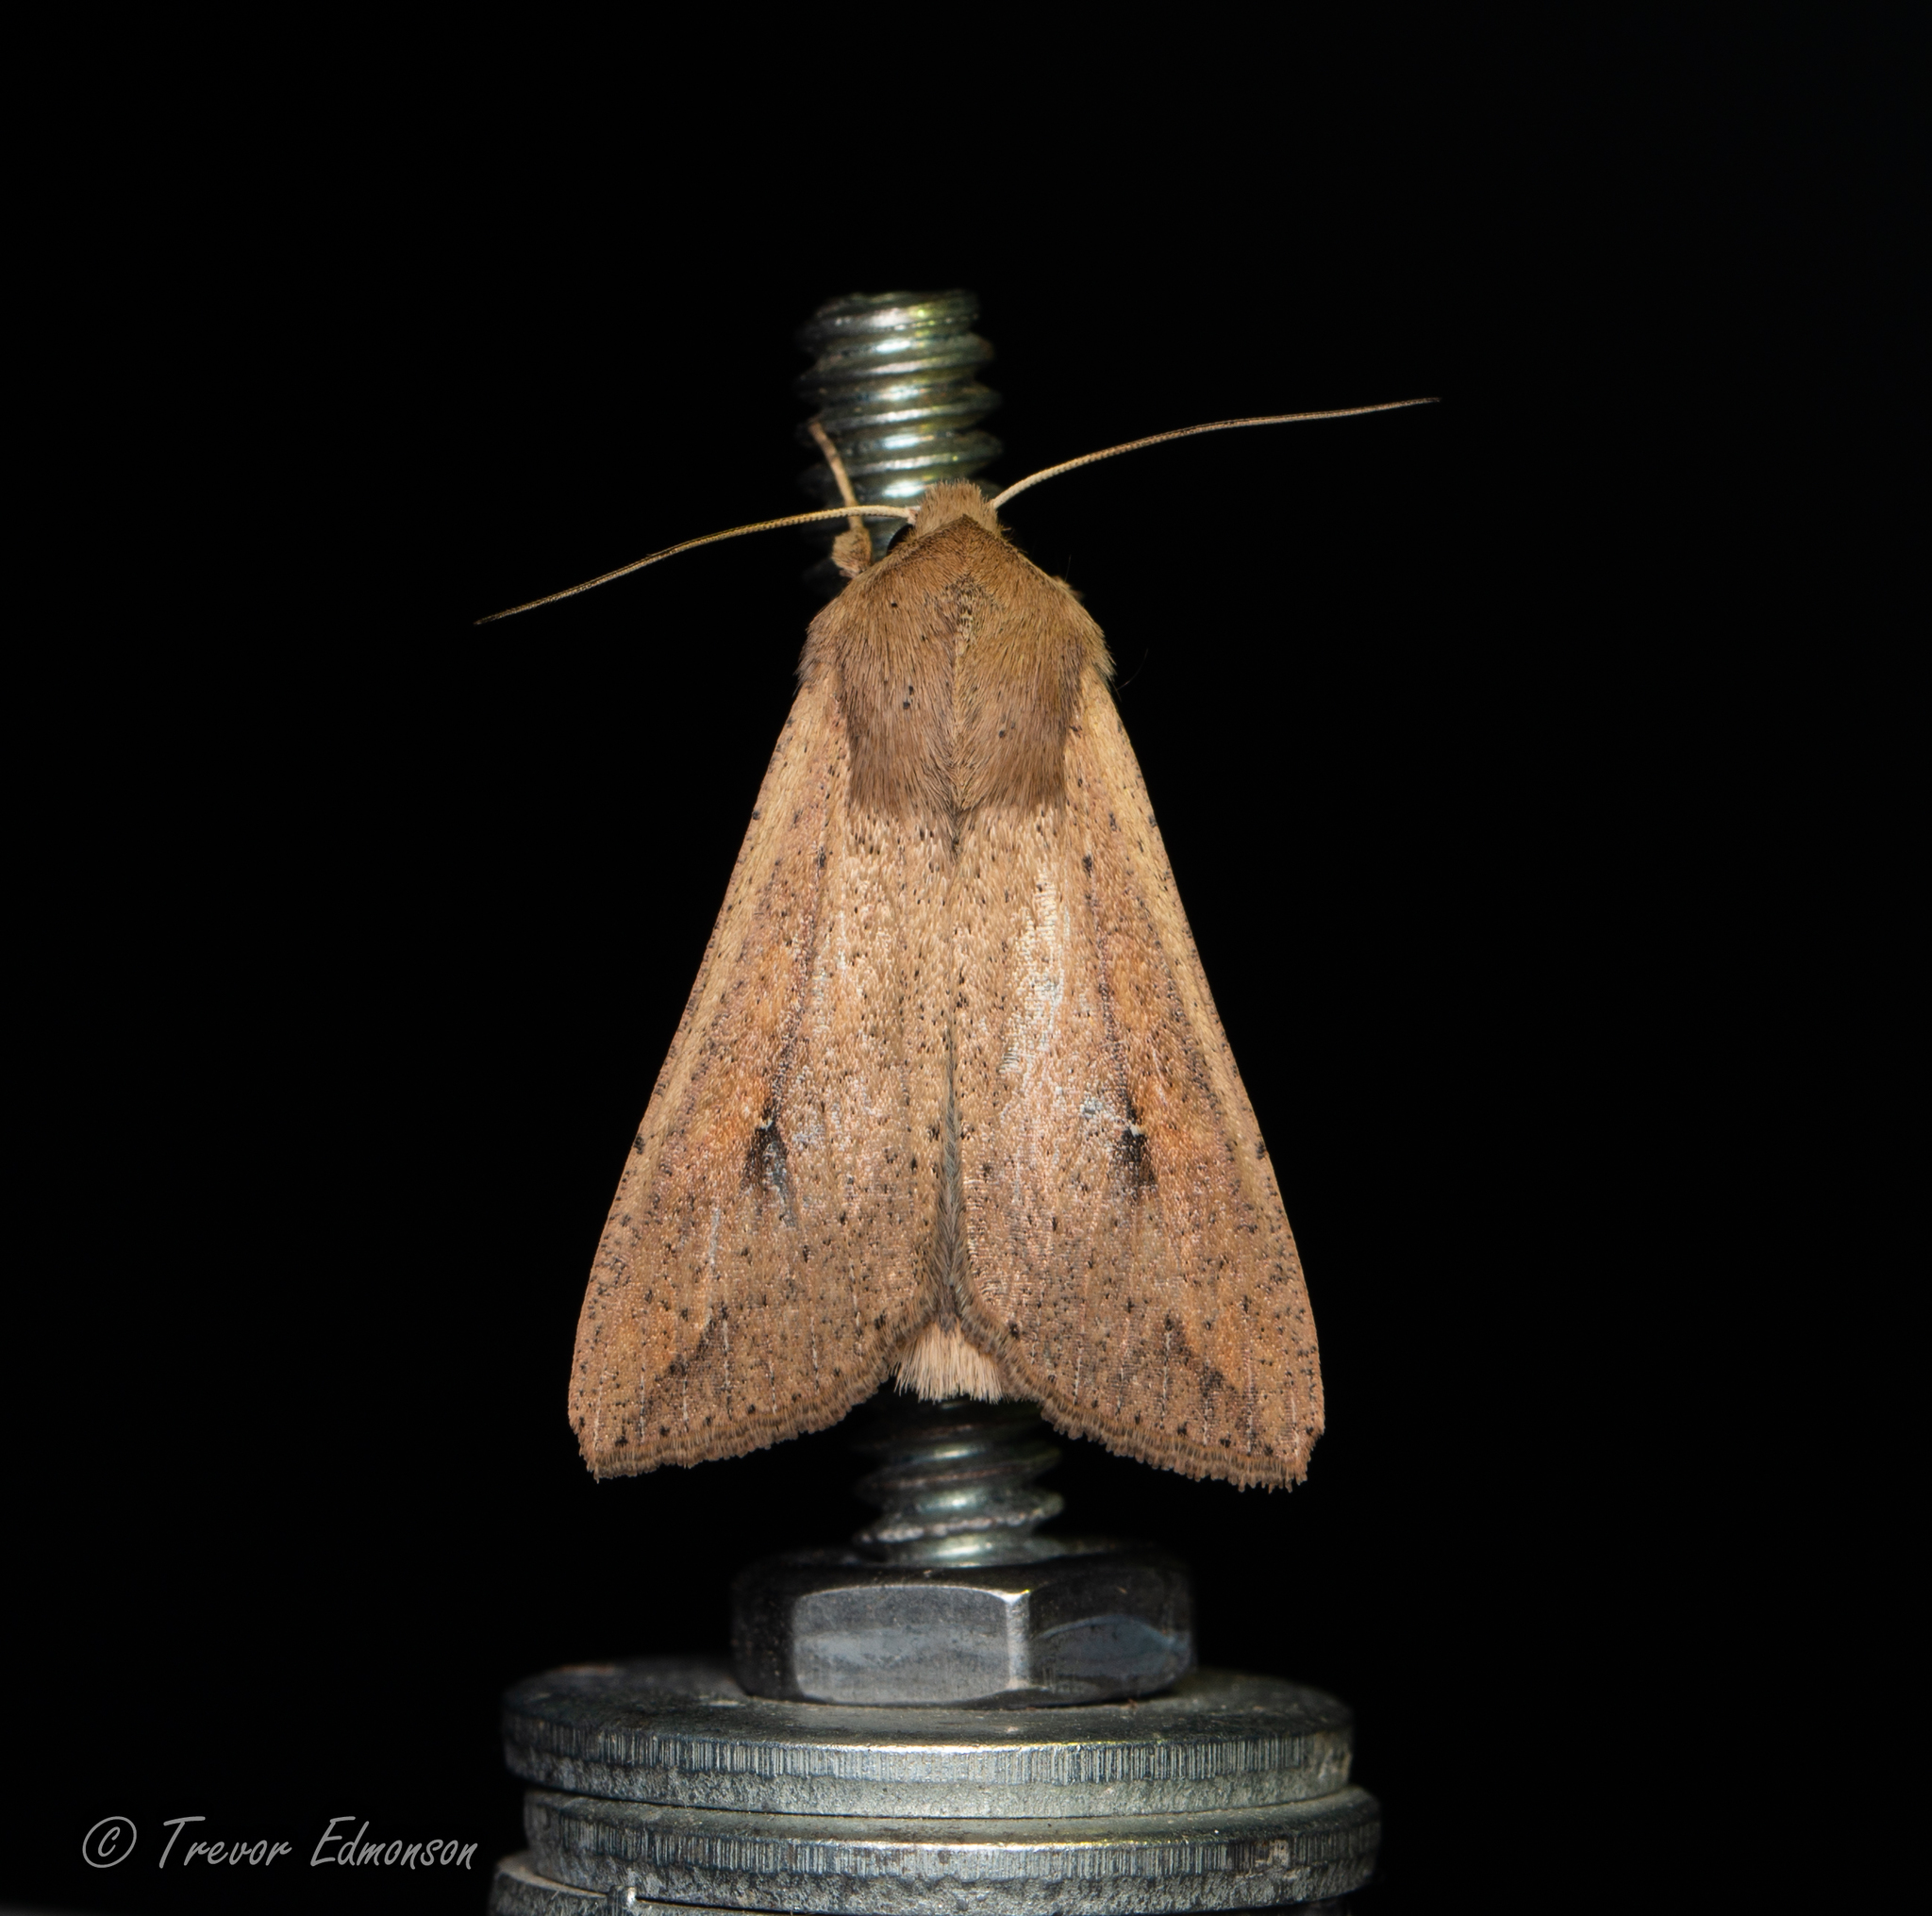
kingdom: Animalia
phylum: Arthropoda
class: Insecta
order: Lepidoptera
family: Noctuidae
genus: Mythimna
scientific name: Mythimna unipuncta
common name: White-speck
